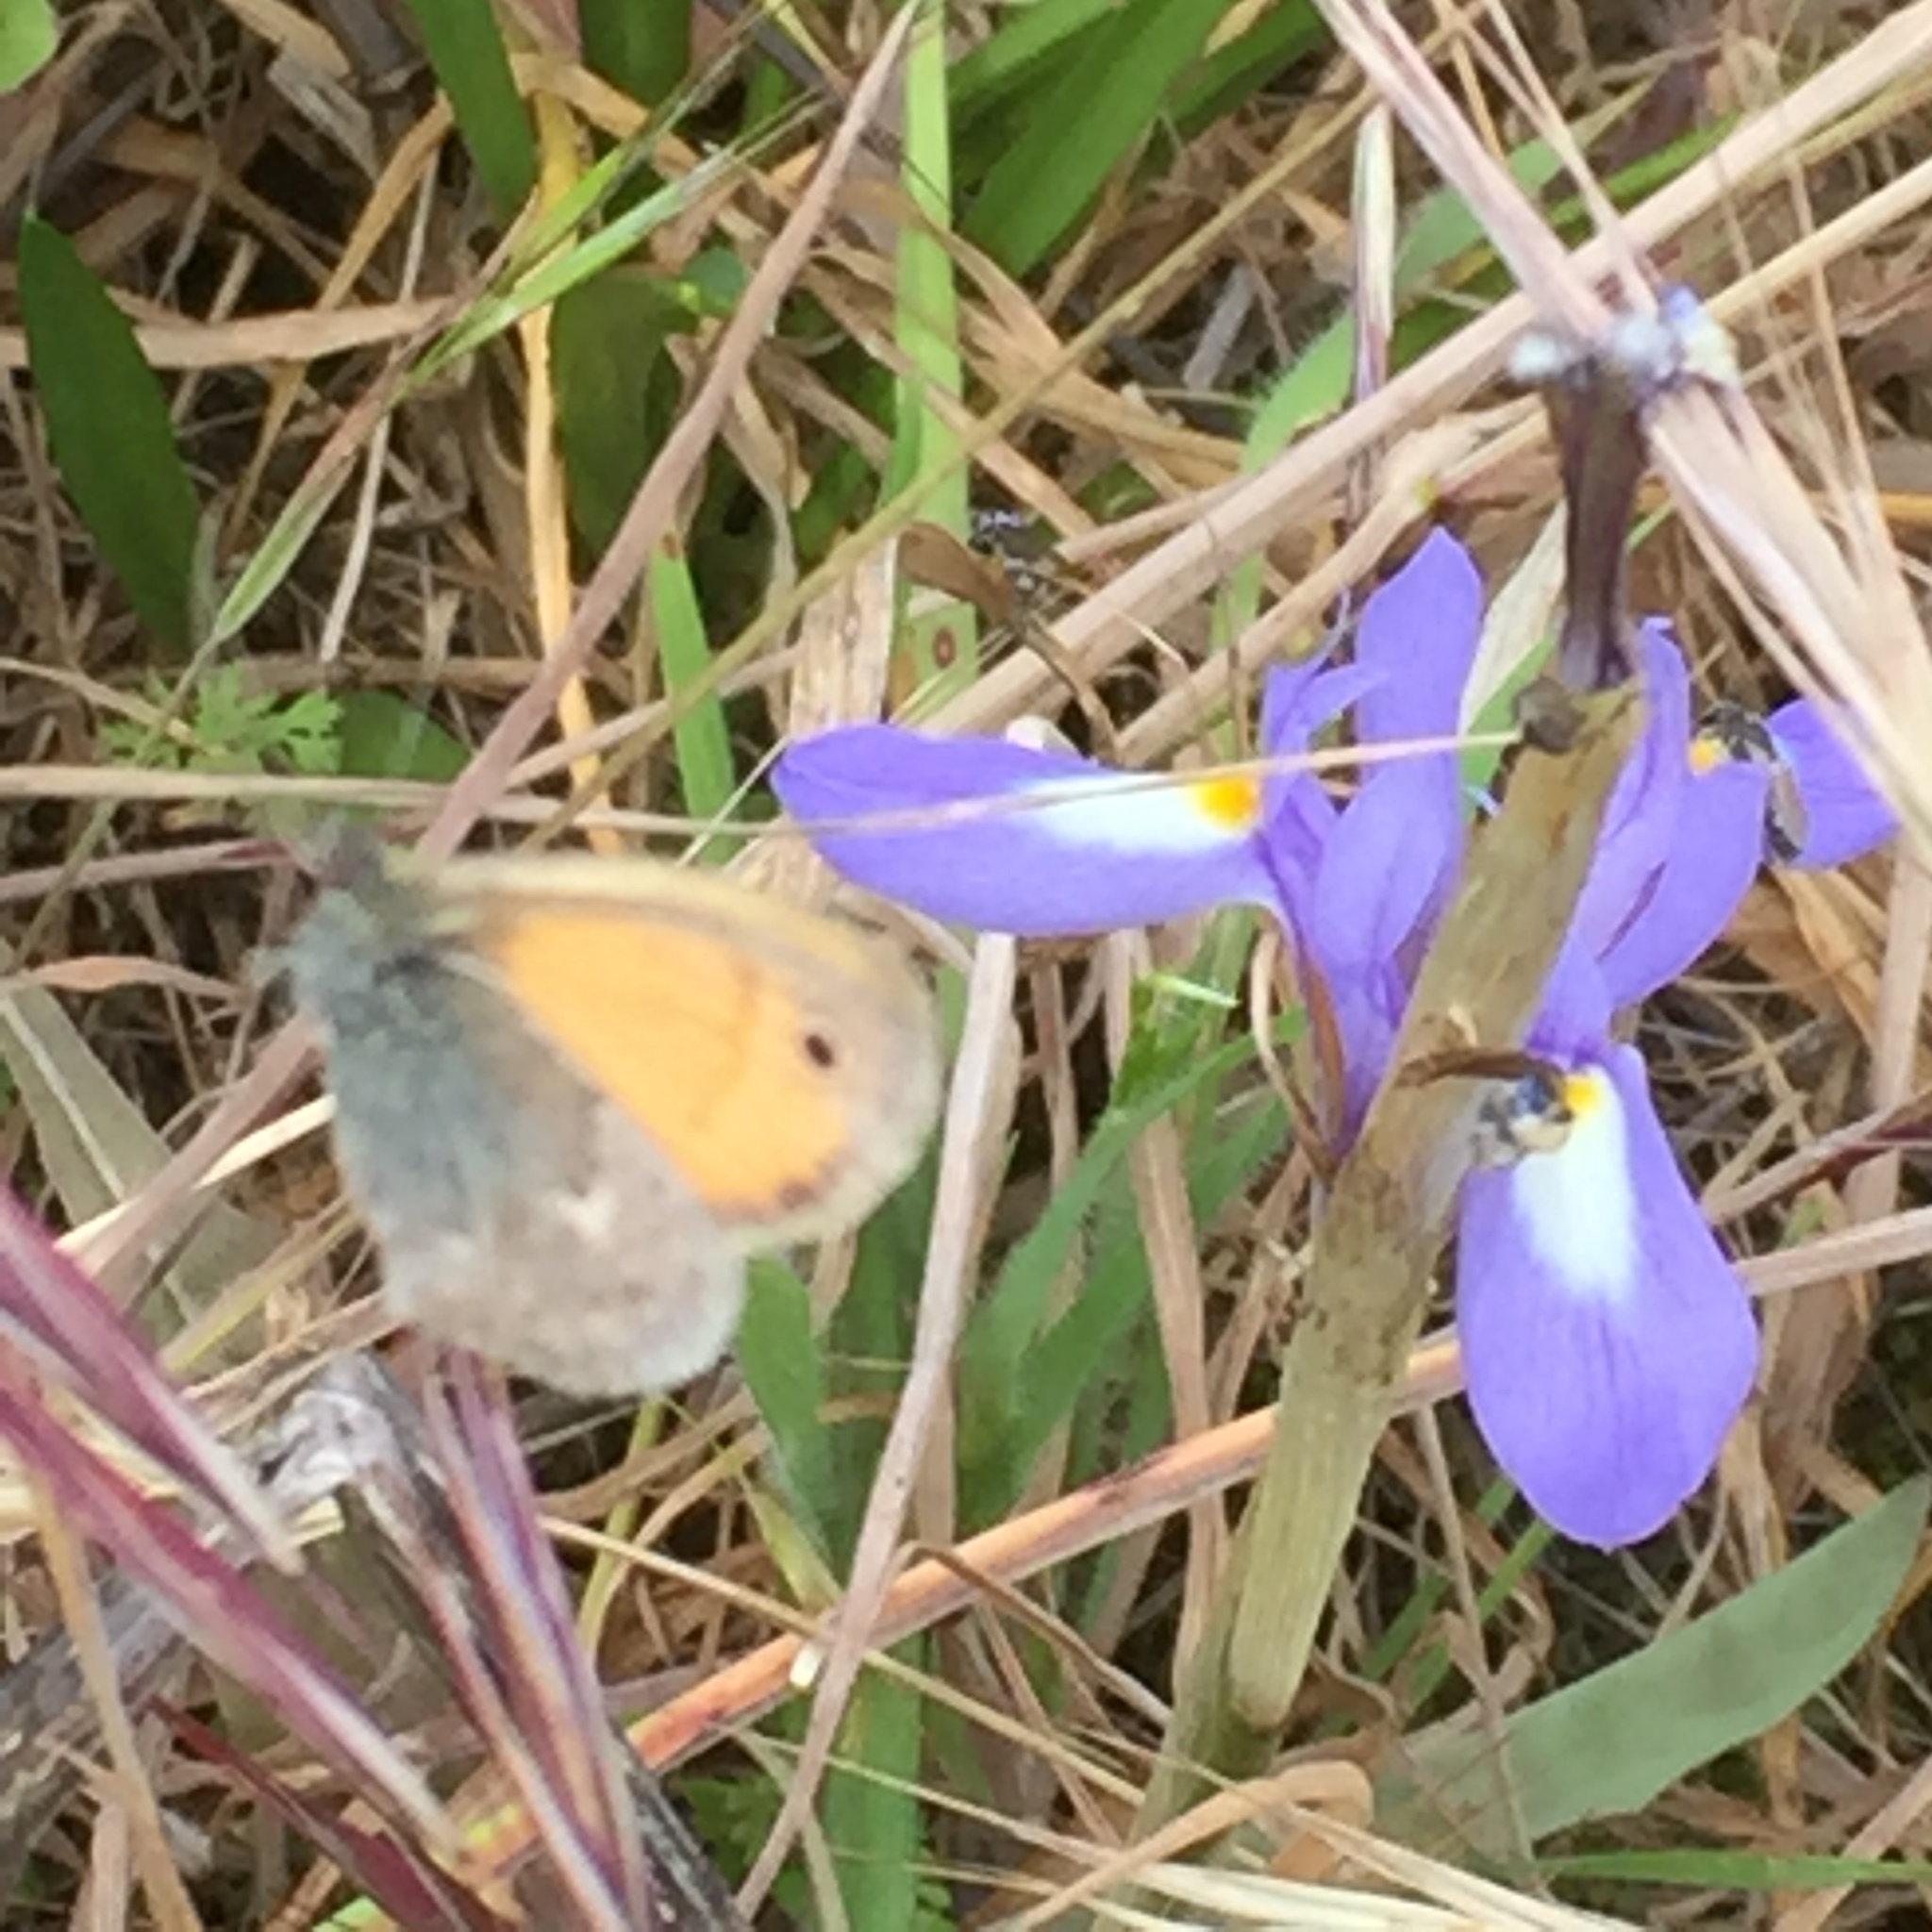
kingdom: Animalia
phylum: Arthropoda
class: Insecta
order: Lepidoptera
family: Nymphalidae
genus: Coenonympha
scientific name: Coenonympha pamphilus
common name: Small heath
